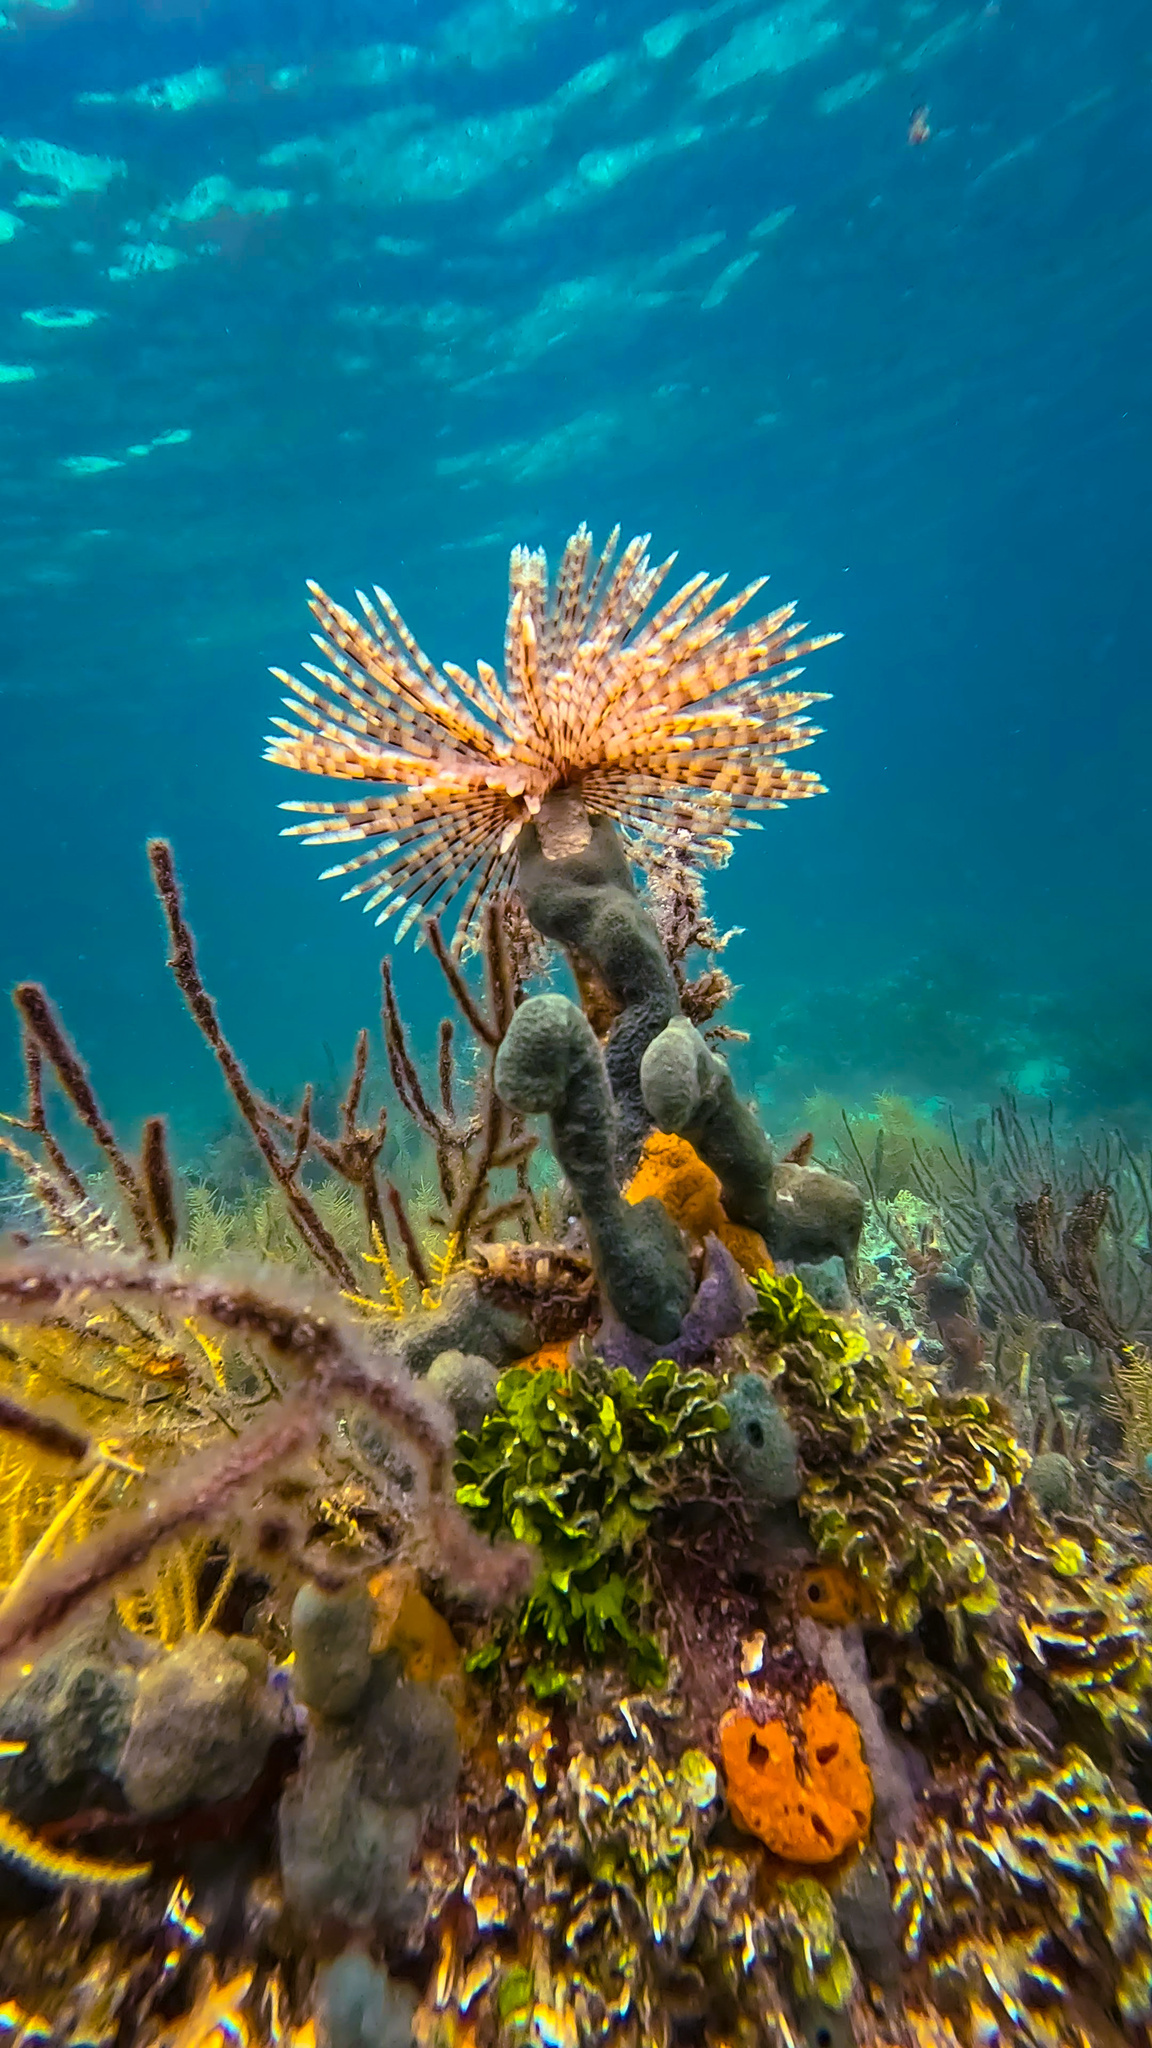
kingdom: Animalia
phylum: Annelida
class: Polychaeta
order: Sabellida
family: Sabellidae
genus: Sabellastarte
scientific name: Sabellastarte magnifica
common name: Giant feather-duster worm
